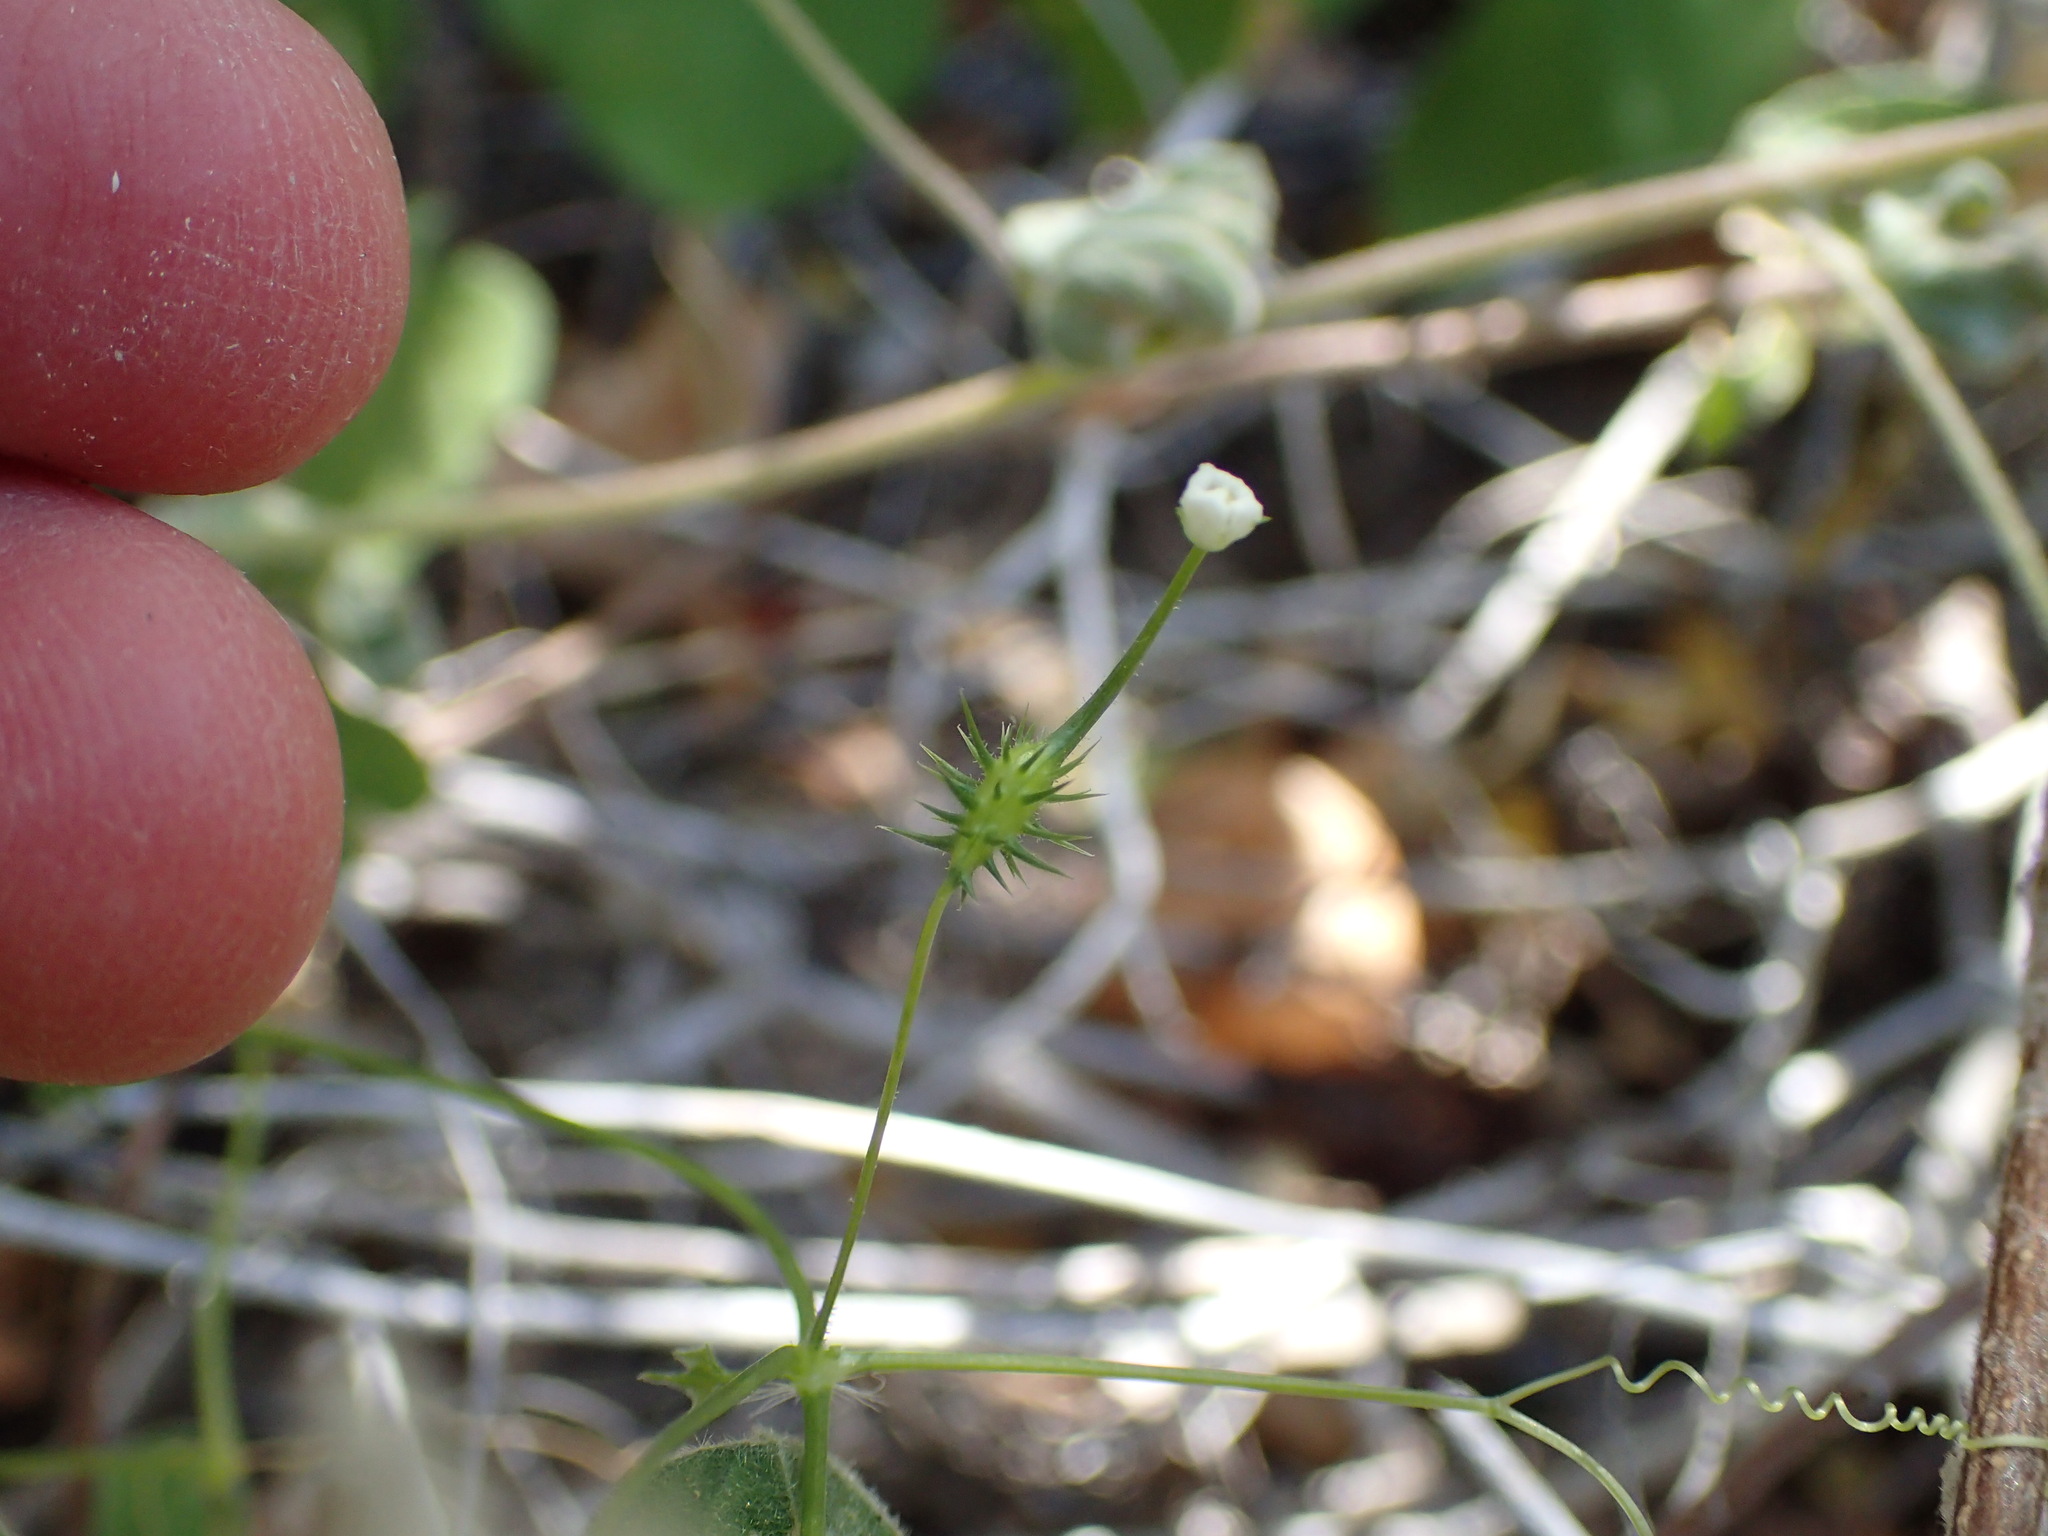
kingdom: Plantae
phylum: Tracheophyta
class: Magnoliopsida
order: Cucurbitales
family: Cucurbitaceae
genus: Echinopepon
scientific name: Echinopepon minimus
